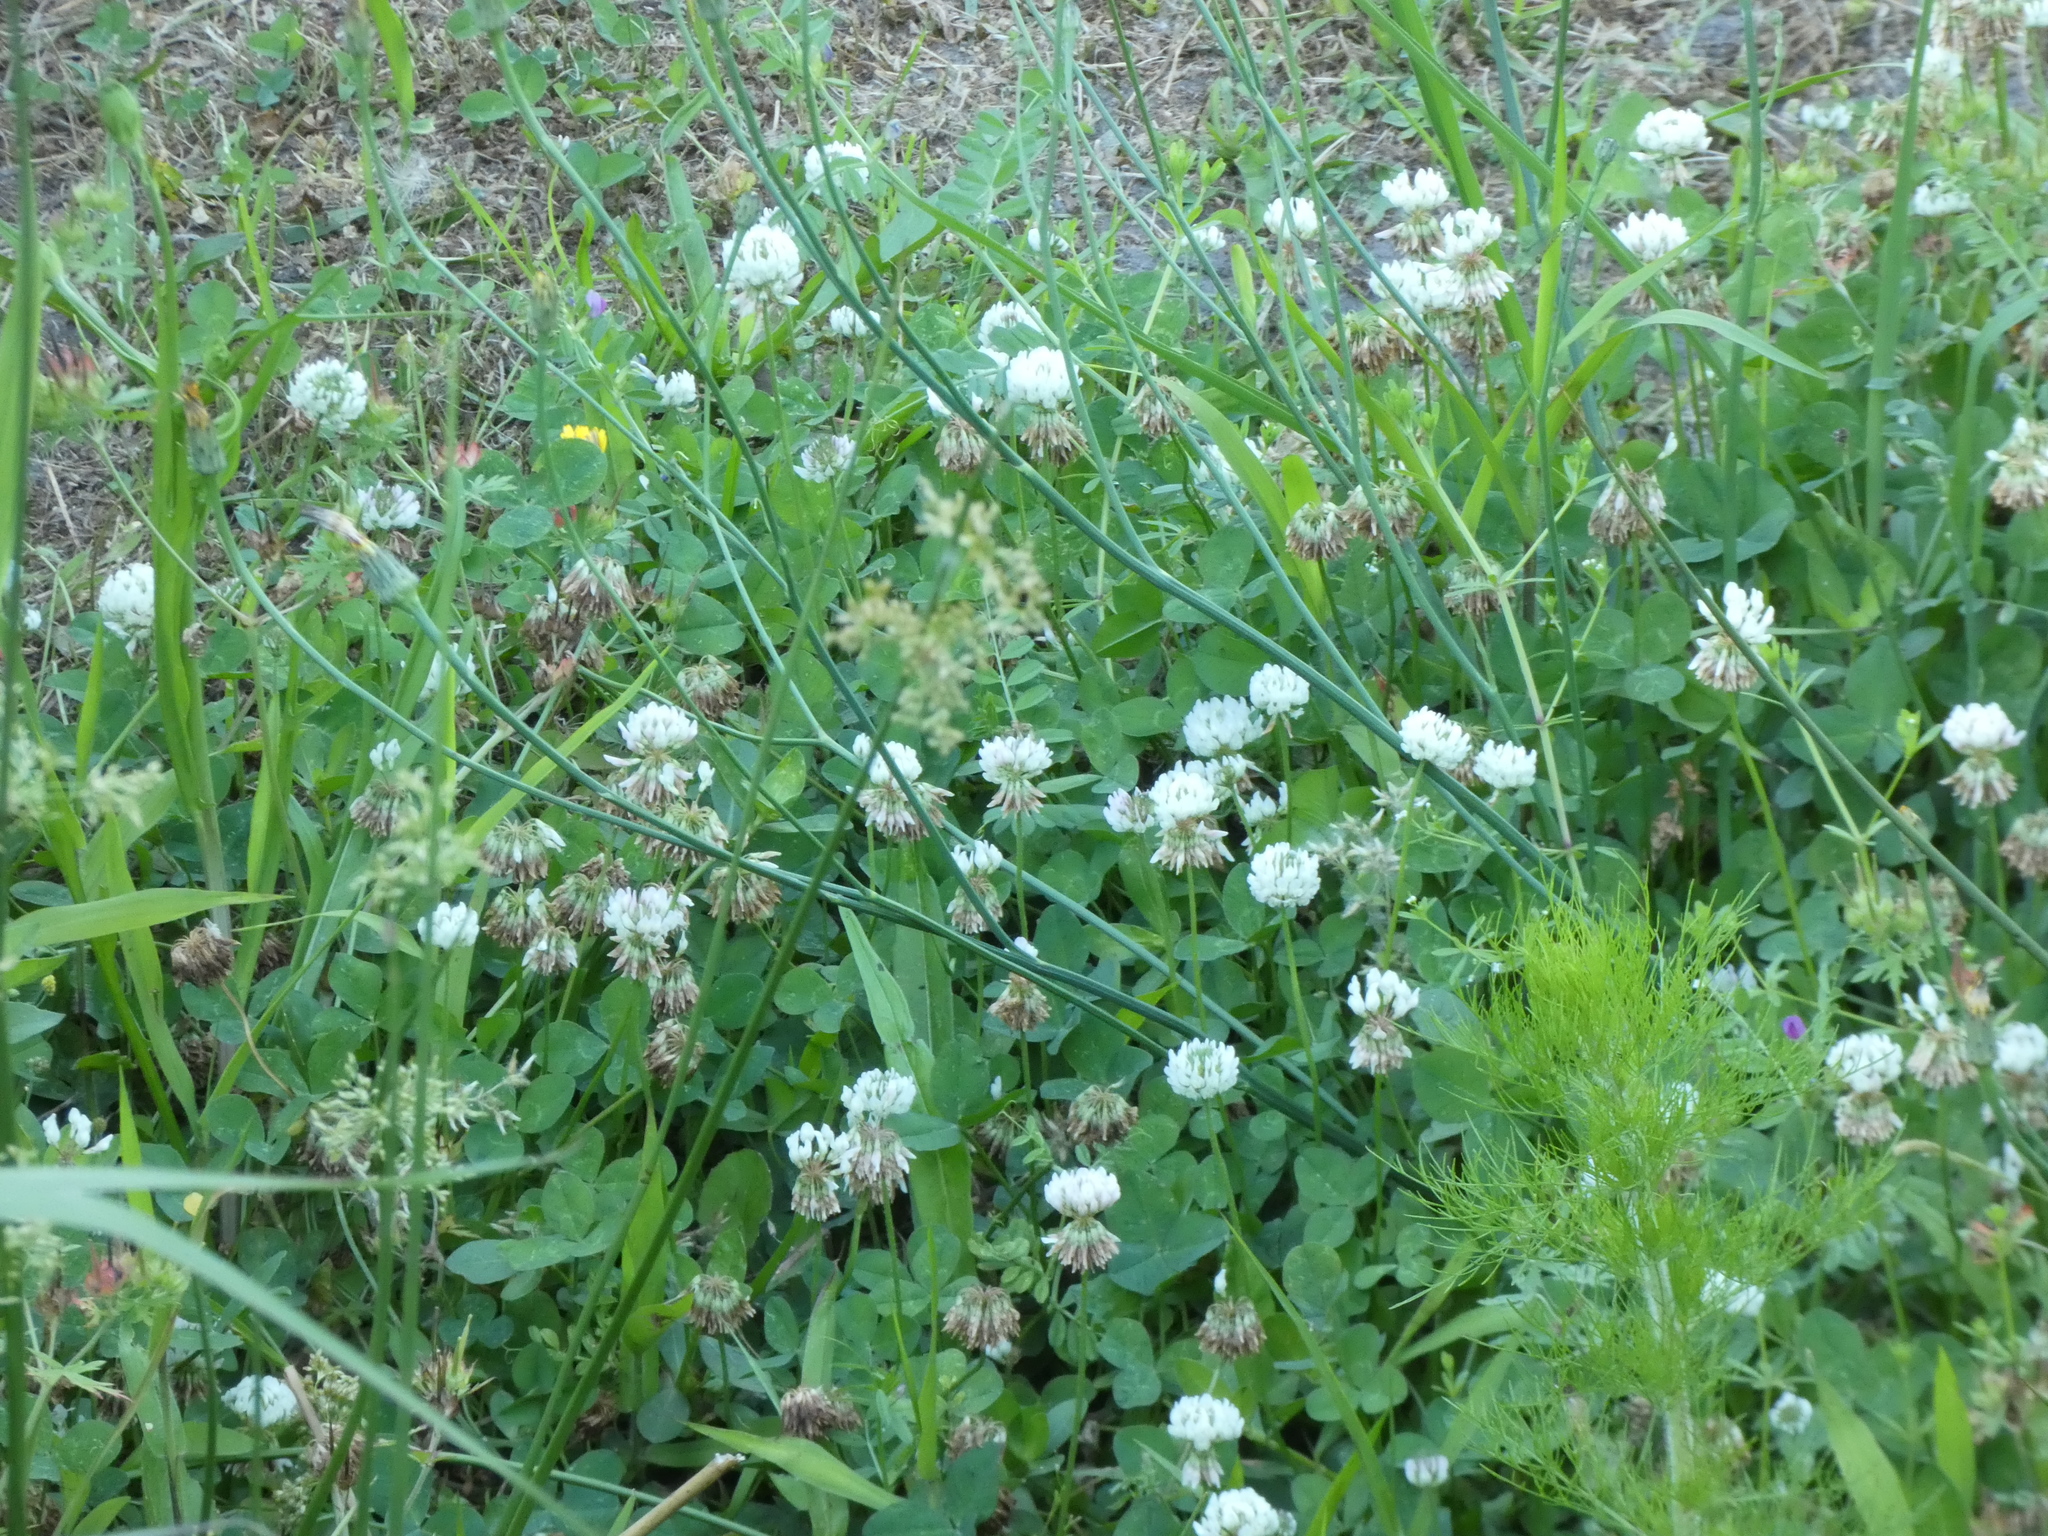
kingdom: Plantae
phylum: Tracheophyta
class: Magnoliopsida
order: Fabales
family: Fabaceae
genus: Trifolium
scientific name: Trifolium repens
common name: White clover
